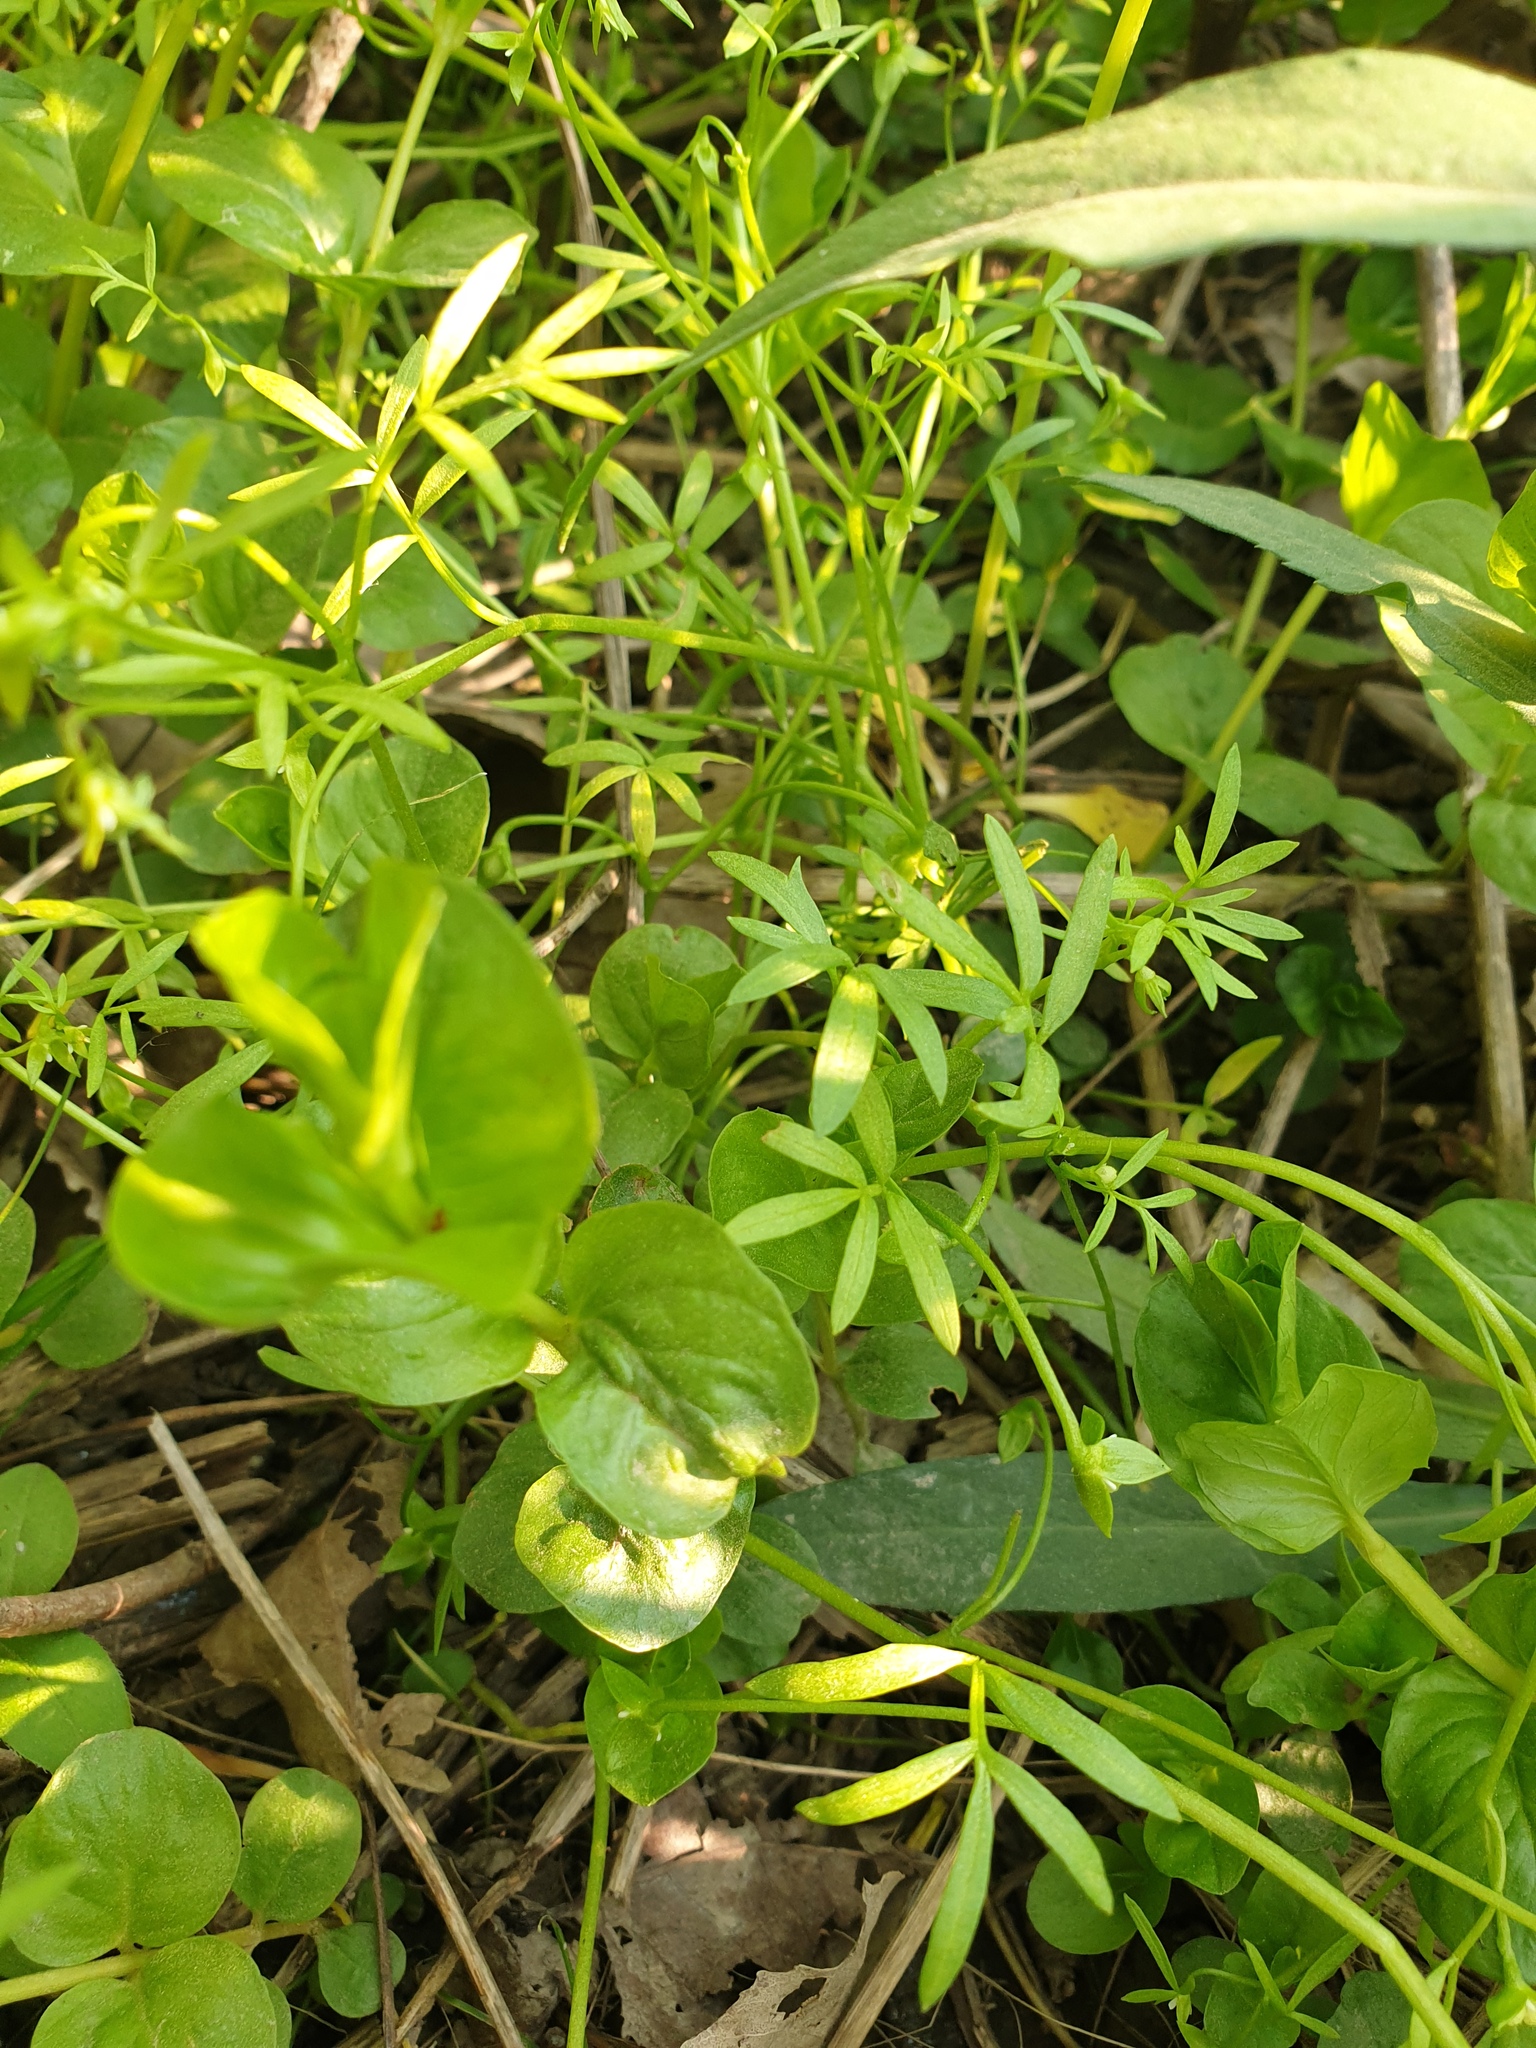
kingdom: Plantae
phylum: Tracheophyta
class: Magnoliopsida
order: Brassicales
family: Limnanthaceae
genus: Floerkea
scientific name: Floerkea proserpinacoides
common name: False mermaid
